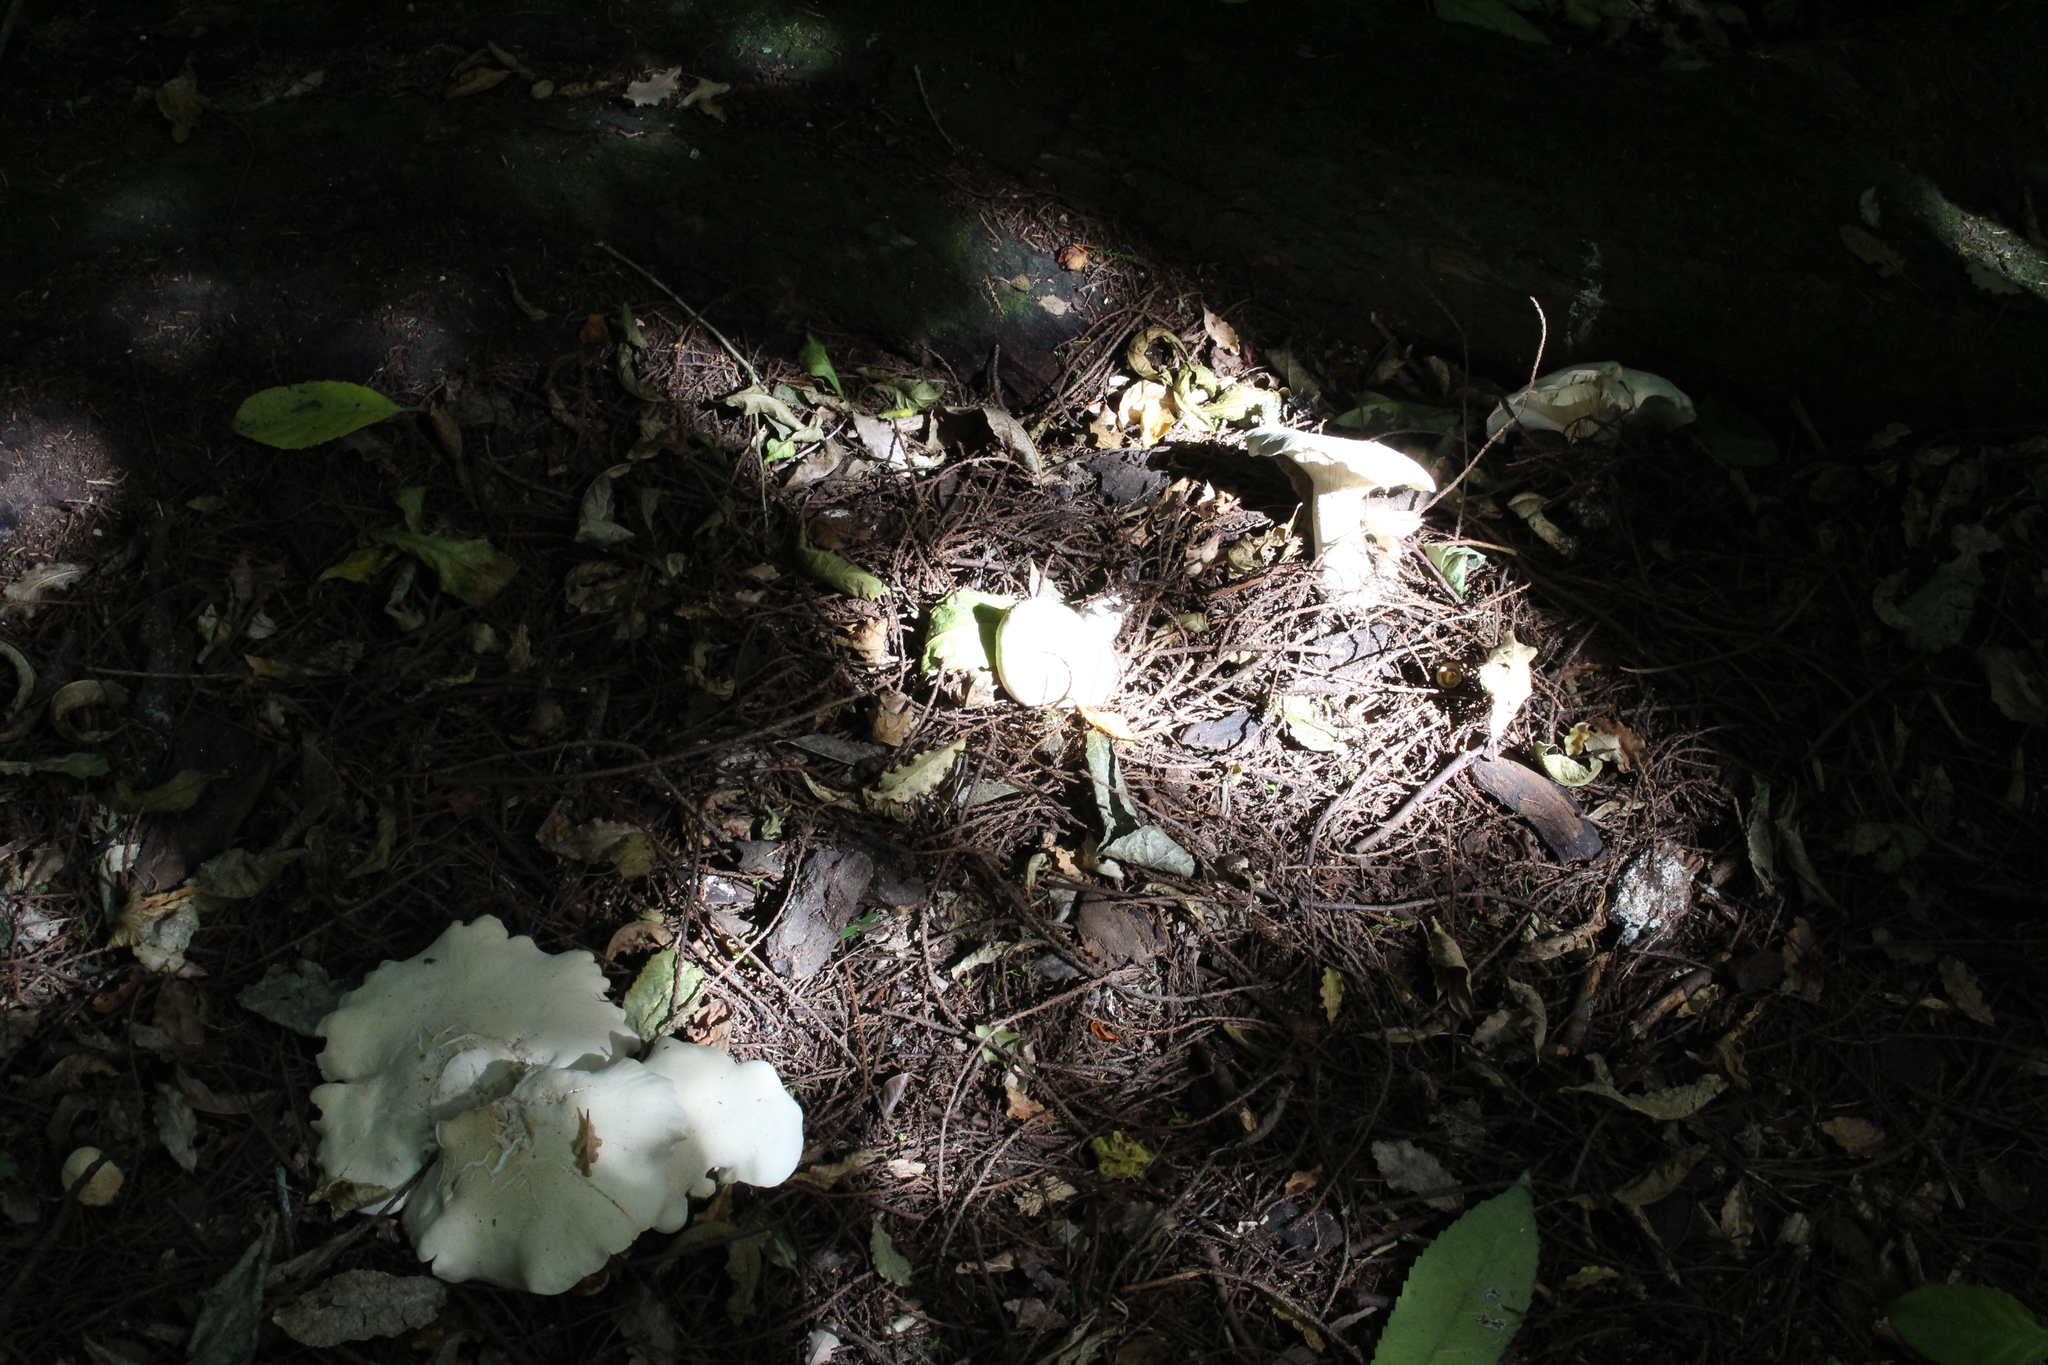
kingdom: Fungi
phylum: Basidiomycota
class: Agaricomycetes
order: Agaricales
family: Tricholomataceae
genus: Clitocybe
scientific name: Clitocybe nebularis
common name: Clouded agaric
